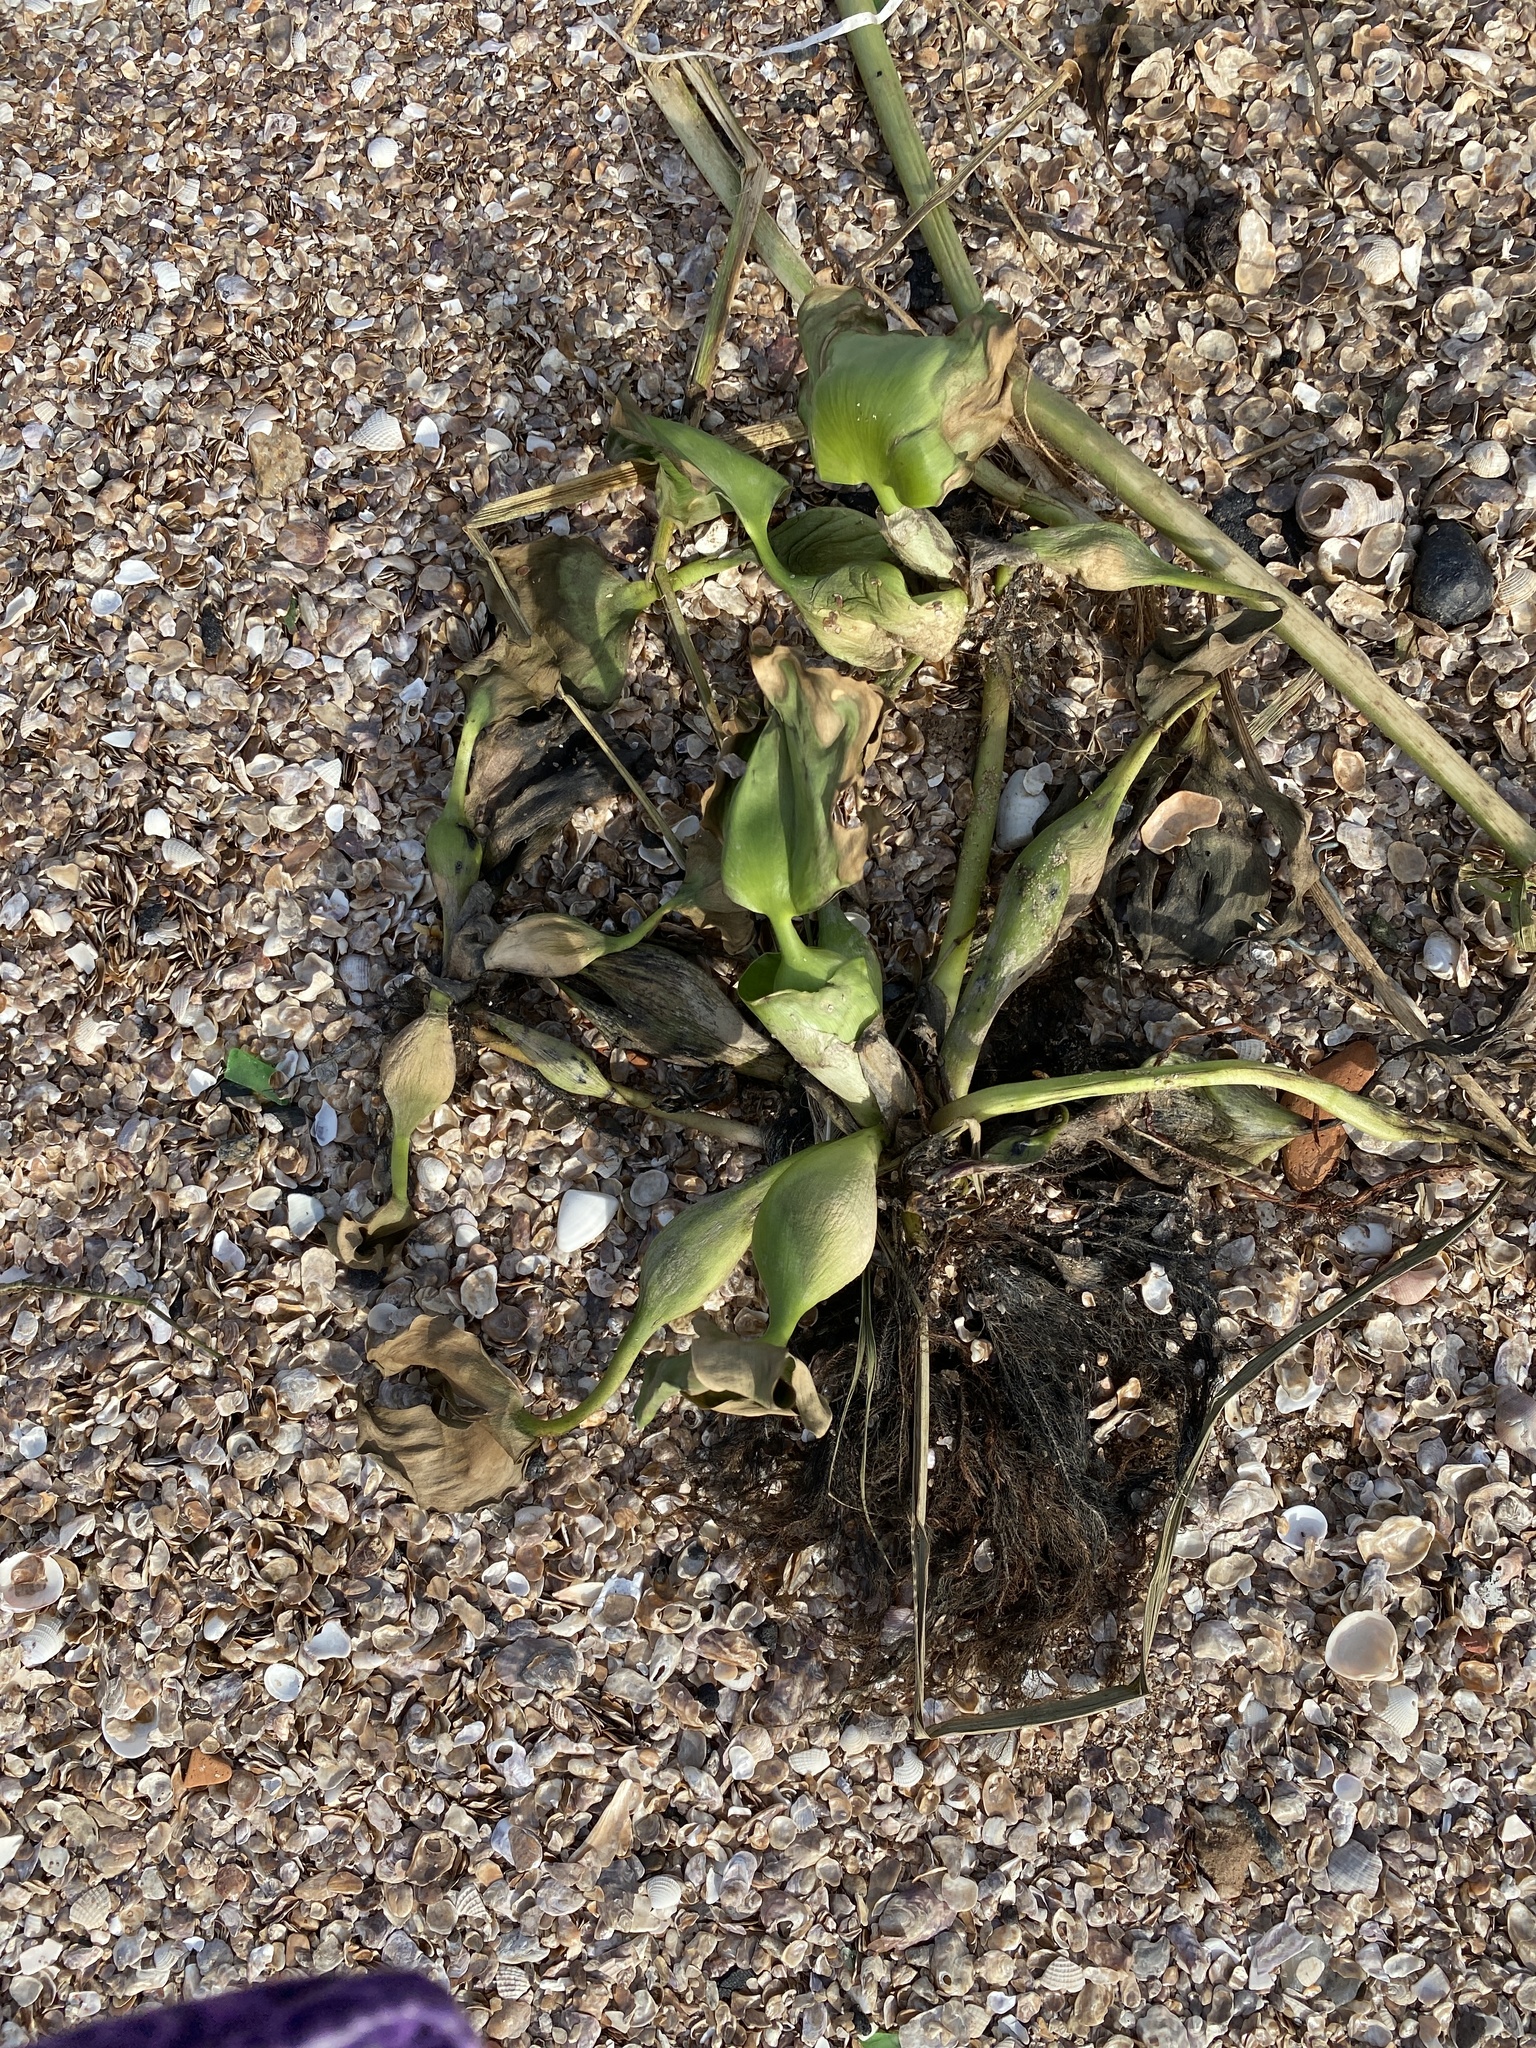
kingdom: Plantae
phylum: Tracheophyta
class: Liliopsida
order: Commelinales
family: Pontederiaceae
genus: Pontederia
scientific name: Pontederia crassipes
